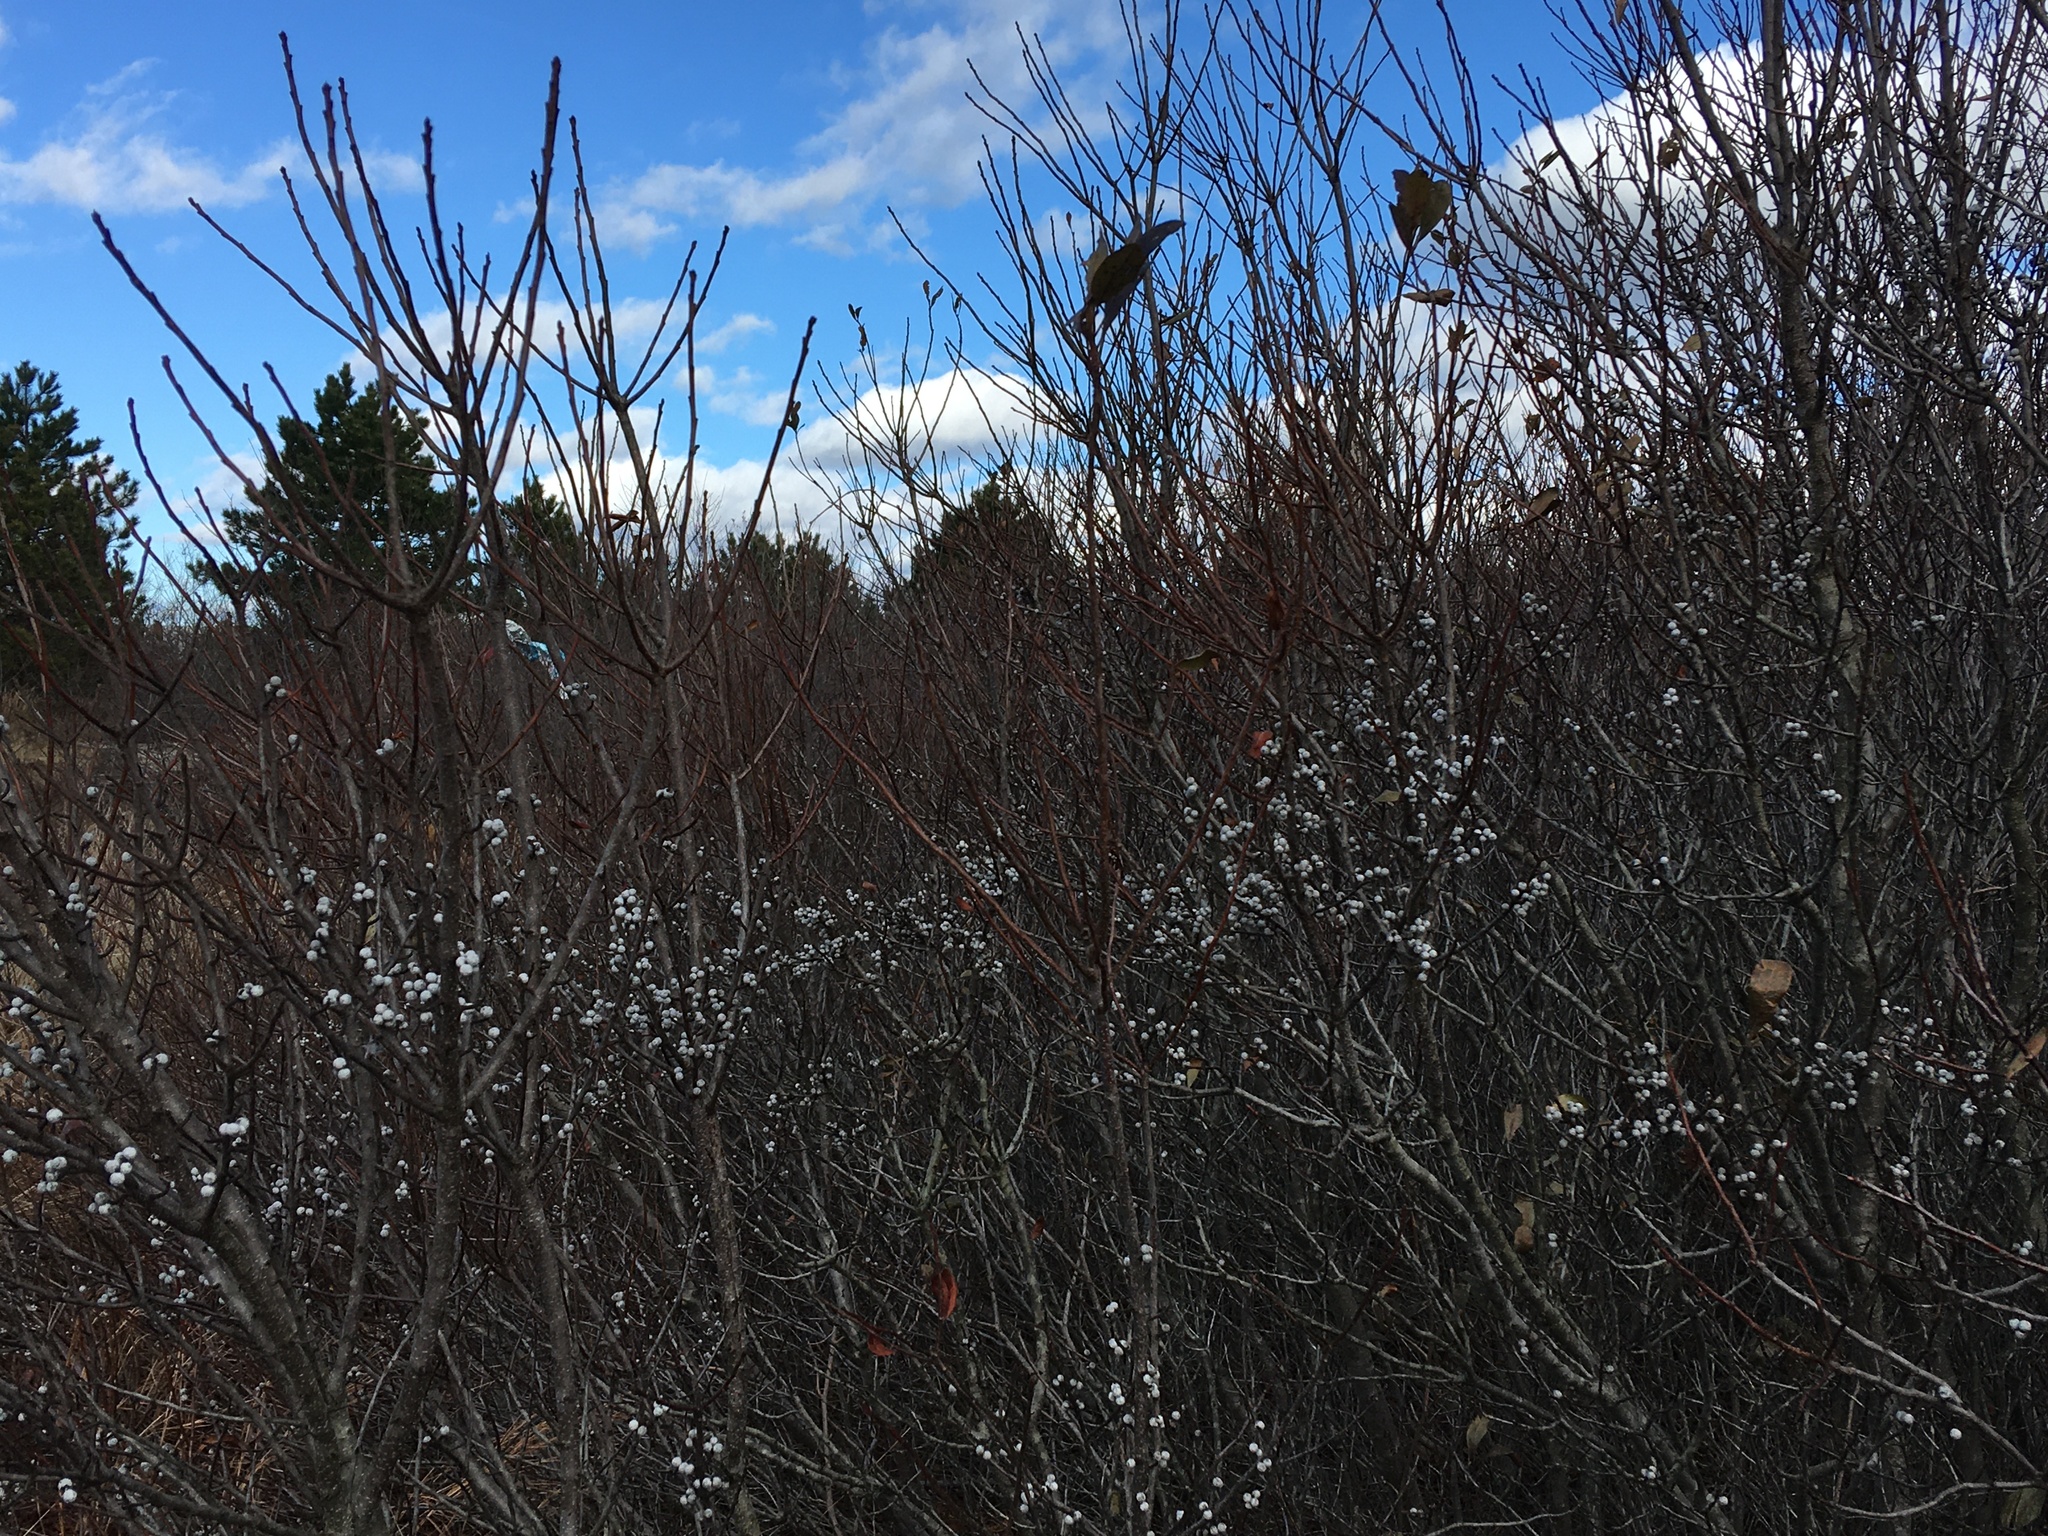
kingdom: Plantae
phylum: Tracheophyta
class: Magnoliopsida
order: Fagales
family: Myricaceae
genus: Morella
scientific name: Morella pensylvanica
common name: Northern bayberry
